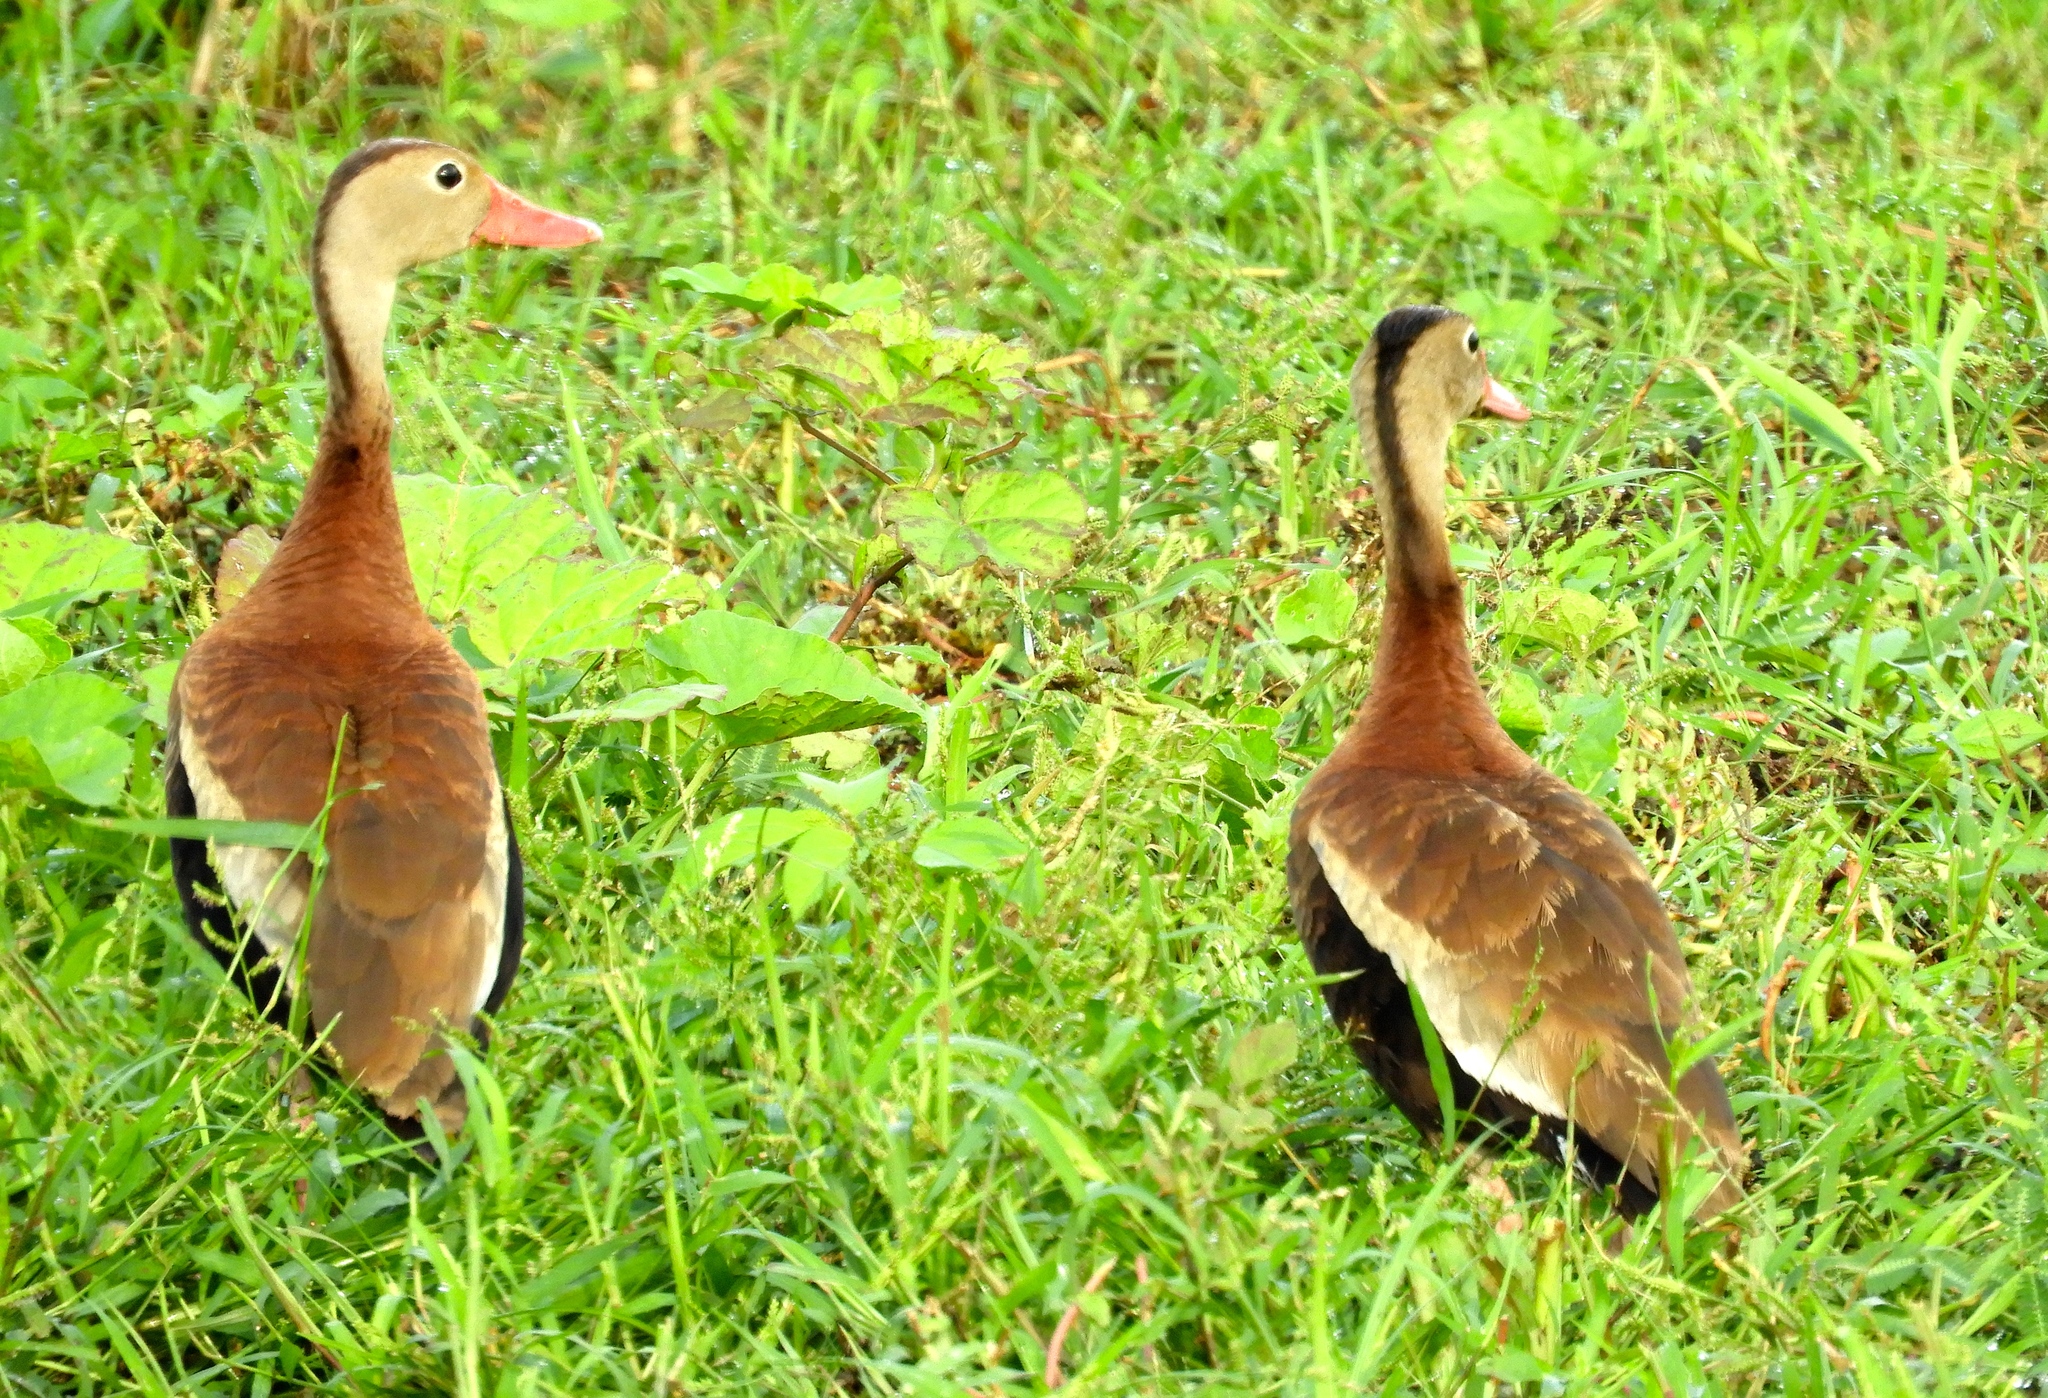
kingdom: Animalia
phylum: Chordata
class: Aves
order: Anseriformes
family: Anatidae
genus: Dendrocygna
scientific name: Dendrocygna autumnalis
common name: Black-bellied whistling duck
